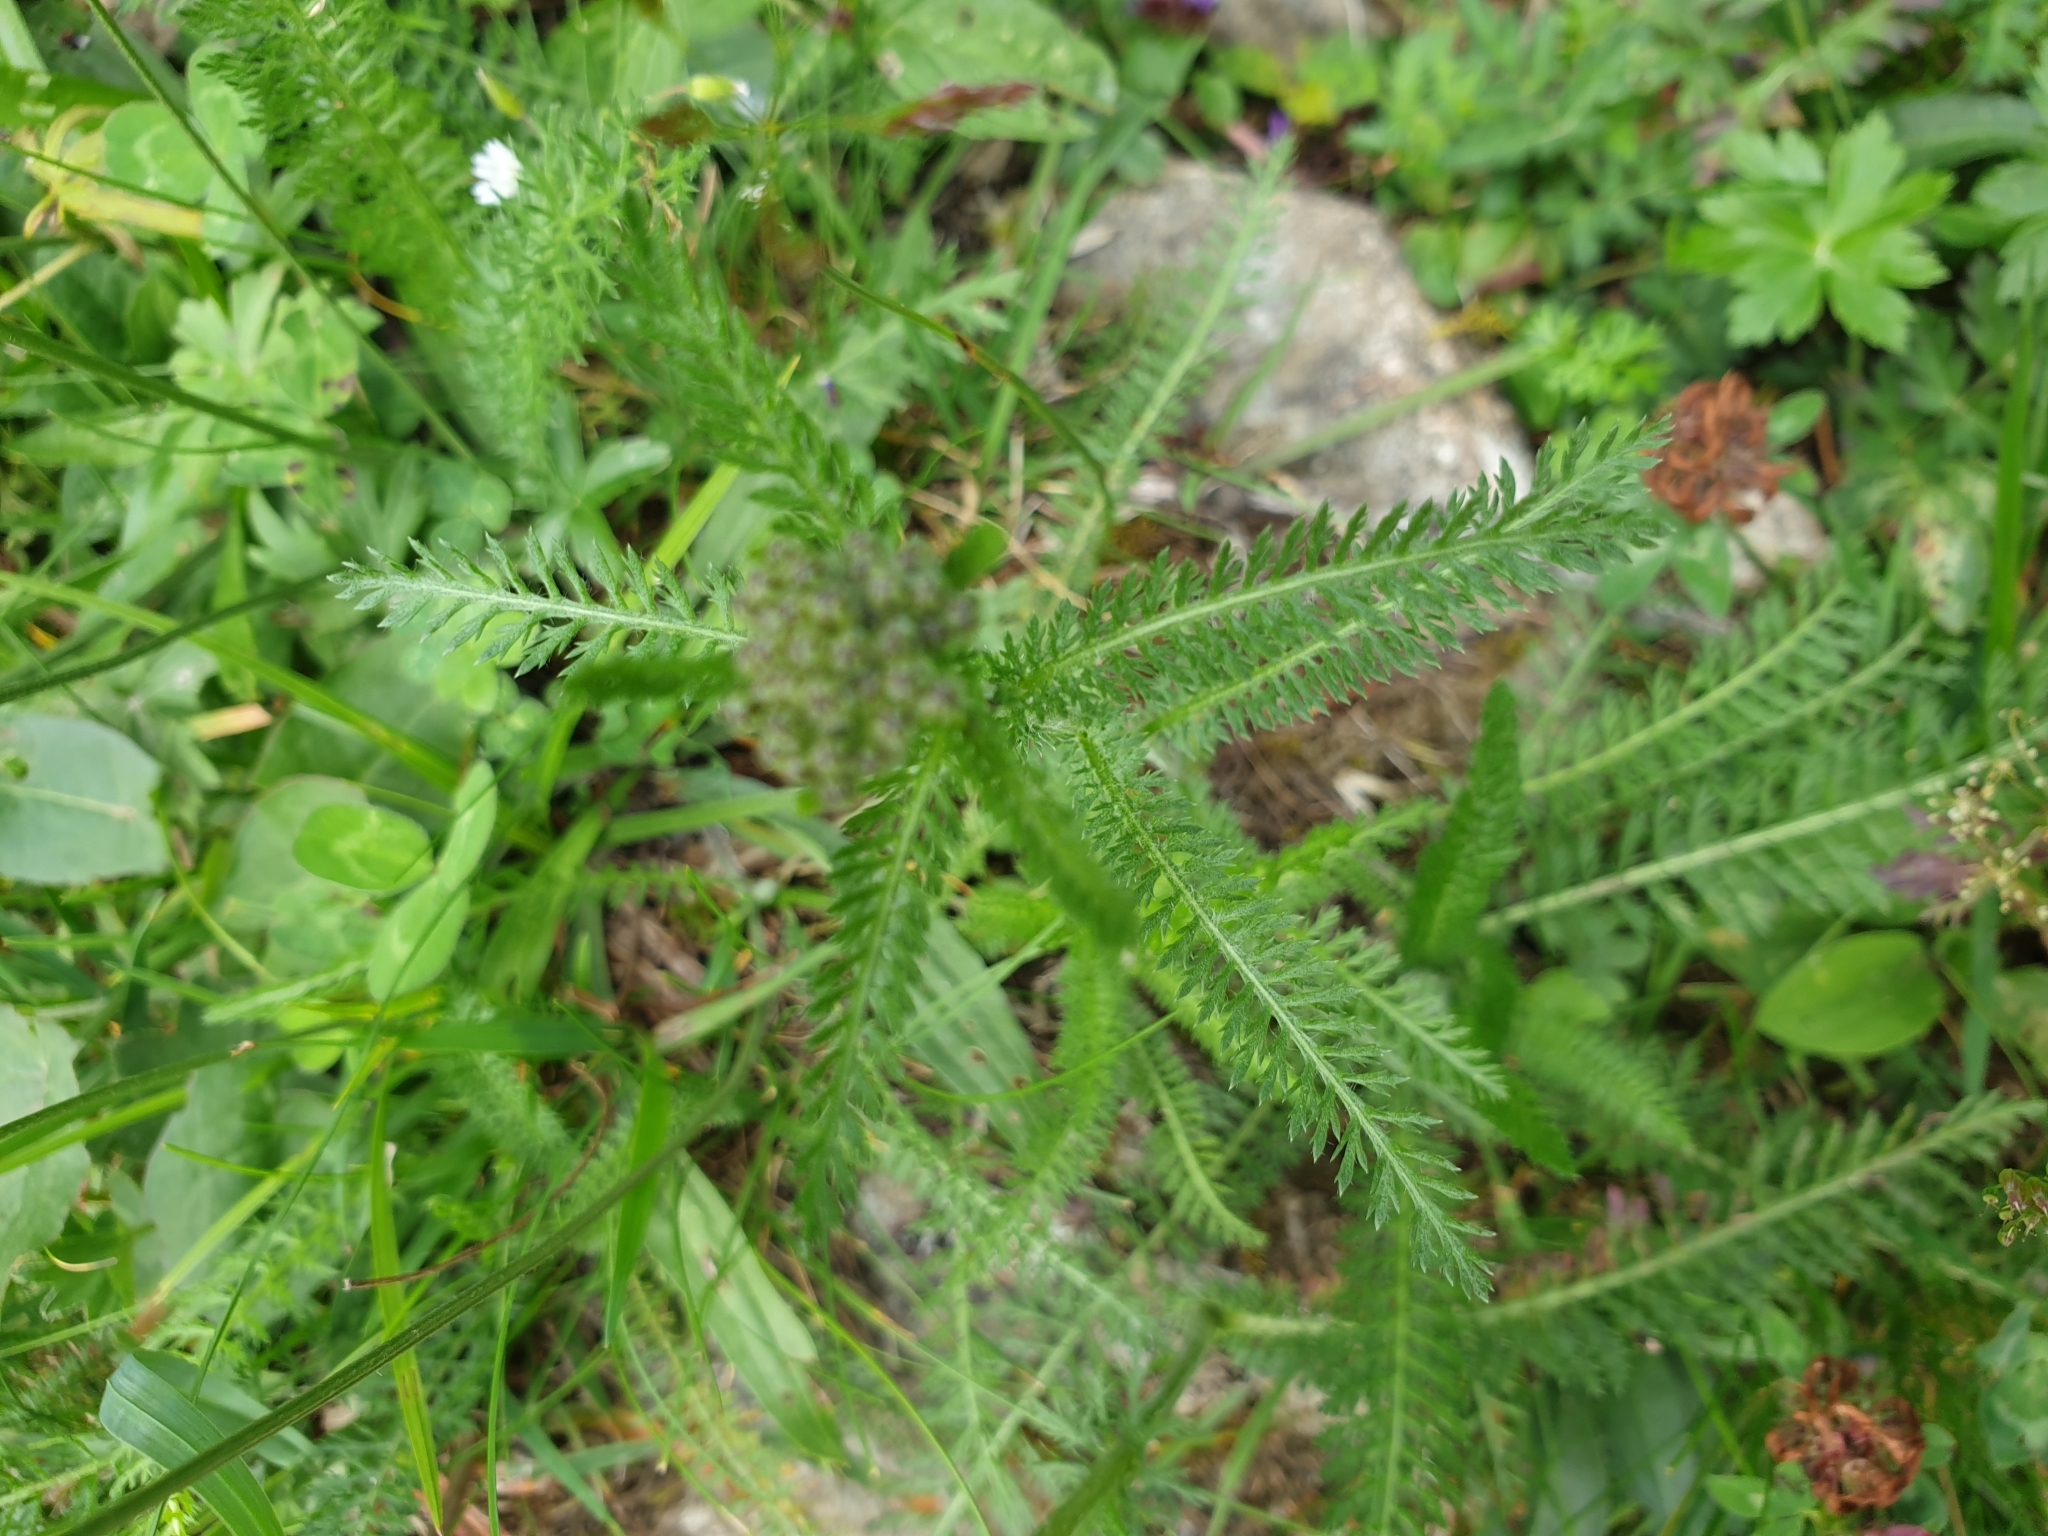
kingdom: Plantae
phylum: Tracheophyta
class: Magnoliopsida
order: Asterales
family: Asteraceae
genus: Achillea
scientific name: Achillea millefolium
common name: Yarrow
